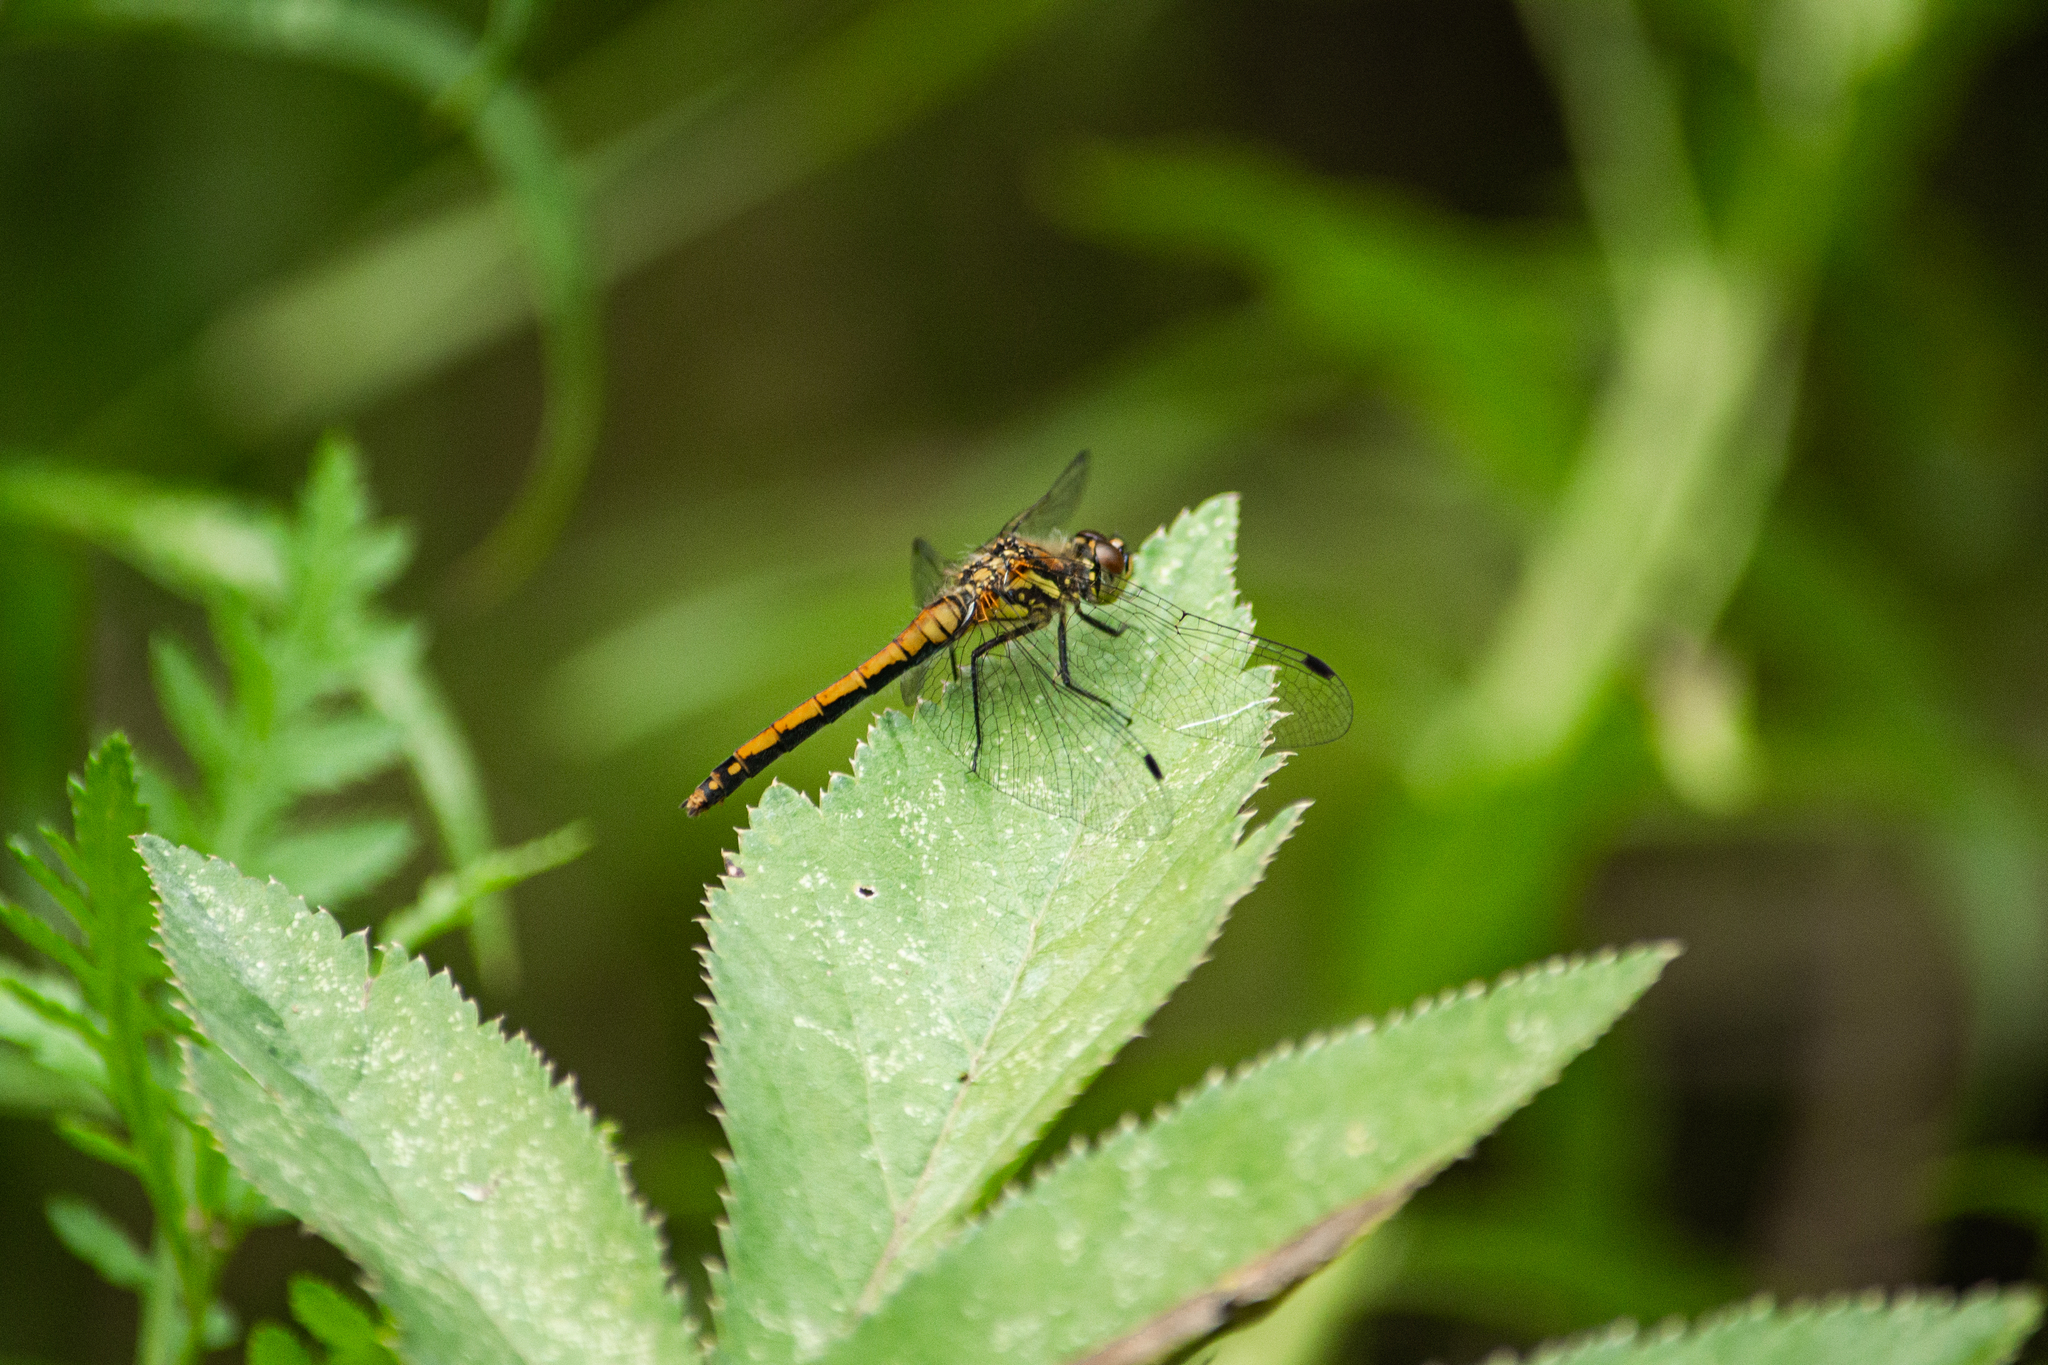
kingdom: Animalia
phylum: Arthropoda
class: Insecta
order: Odonata
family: Libellulidae
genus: Sympetrum
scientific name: Sympetrum danae
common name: Black darter
